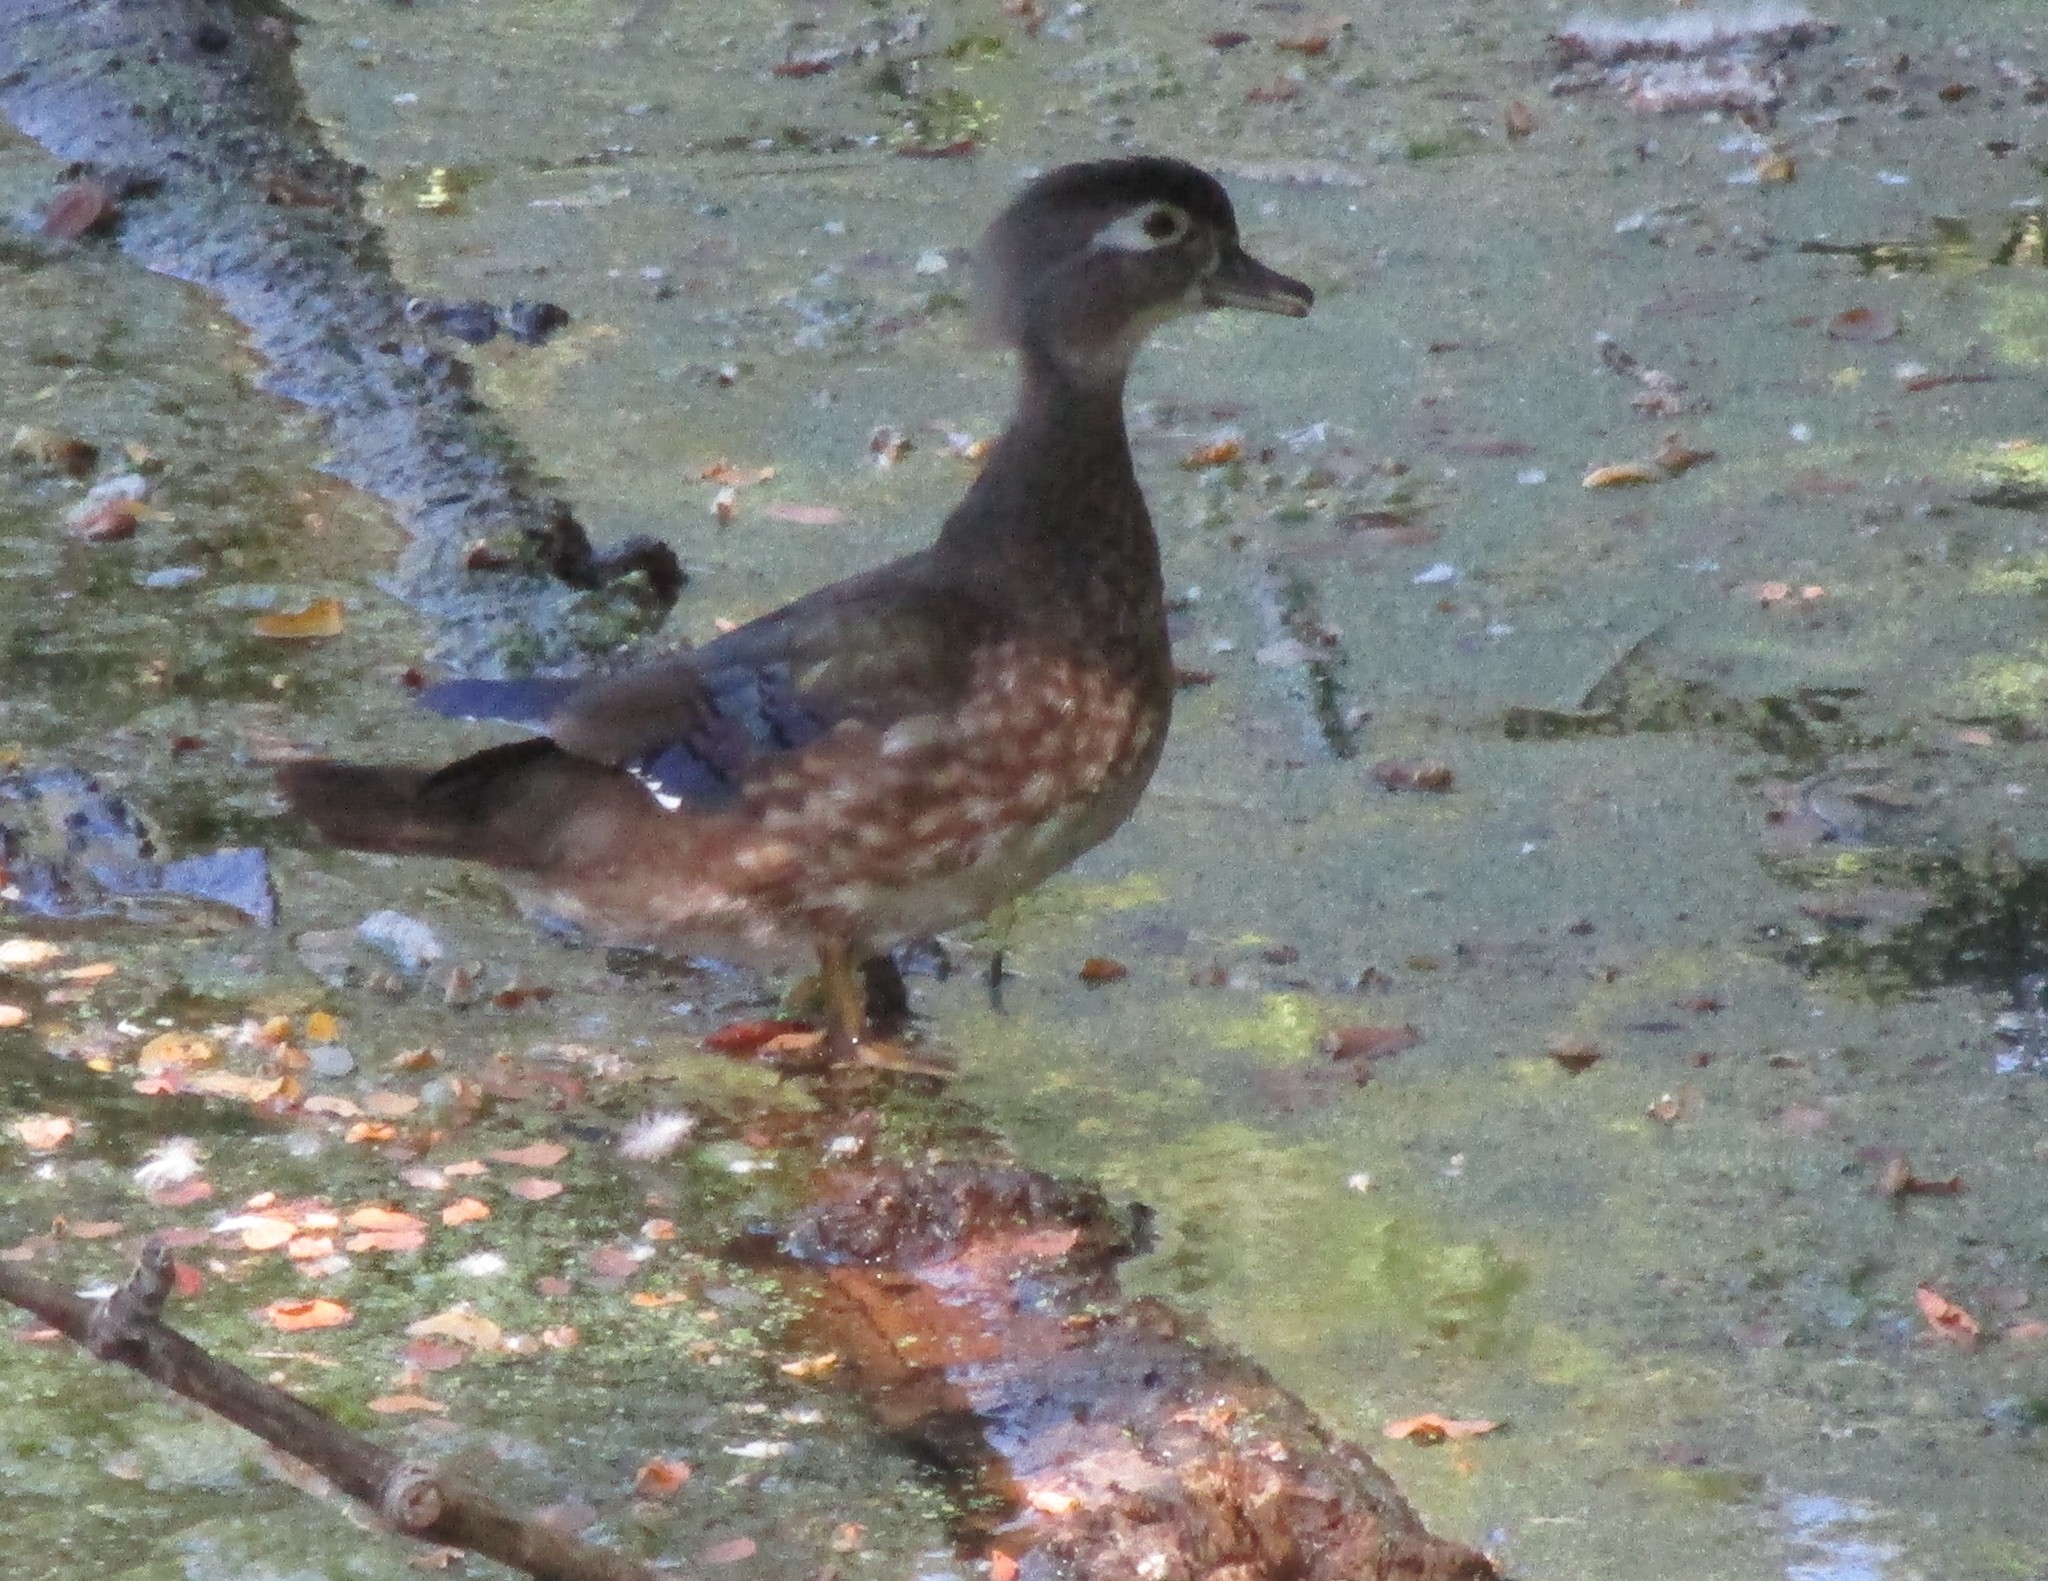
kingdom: Animalia
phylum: Chordata
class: Aves
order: Anseriformes
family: Anatidae
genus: Aix
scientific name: Aix sponsa
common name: Wood duck
